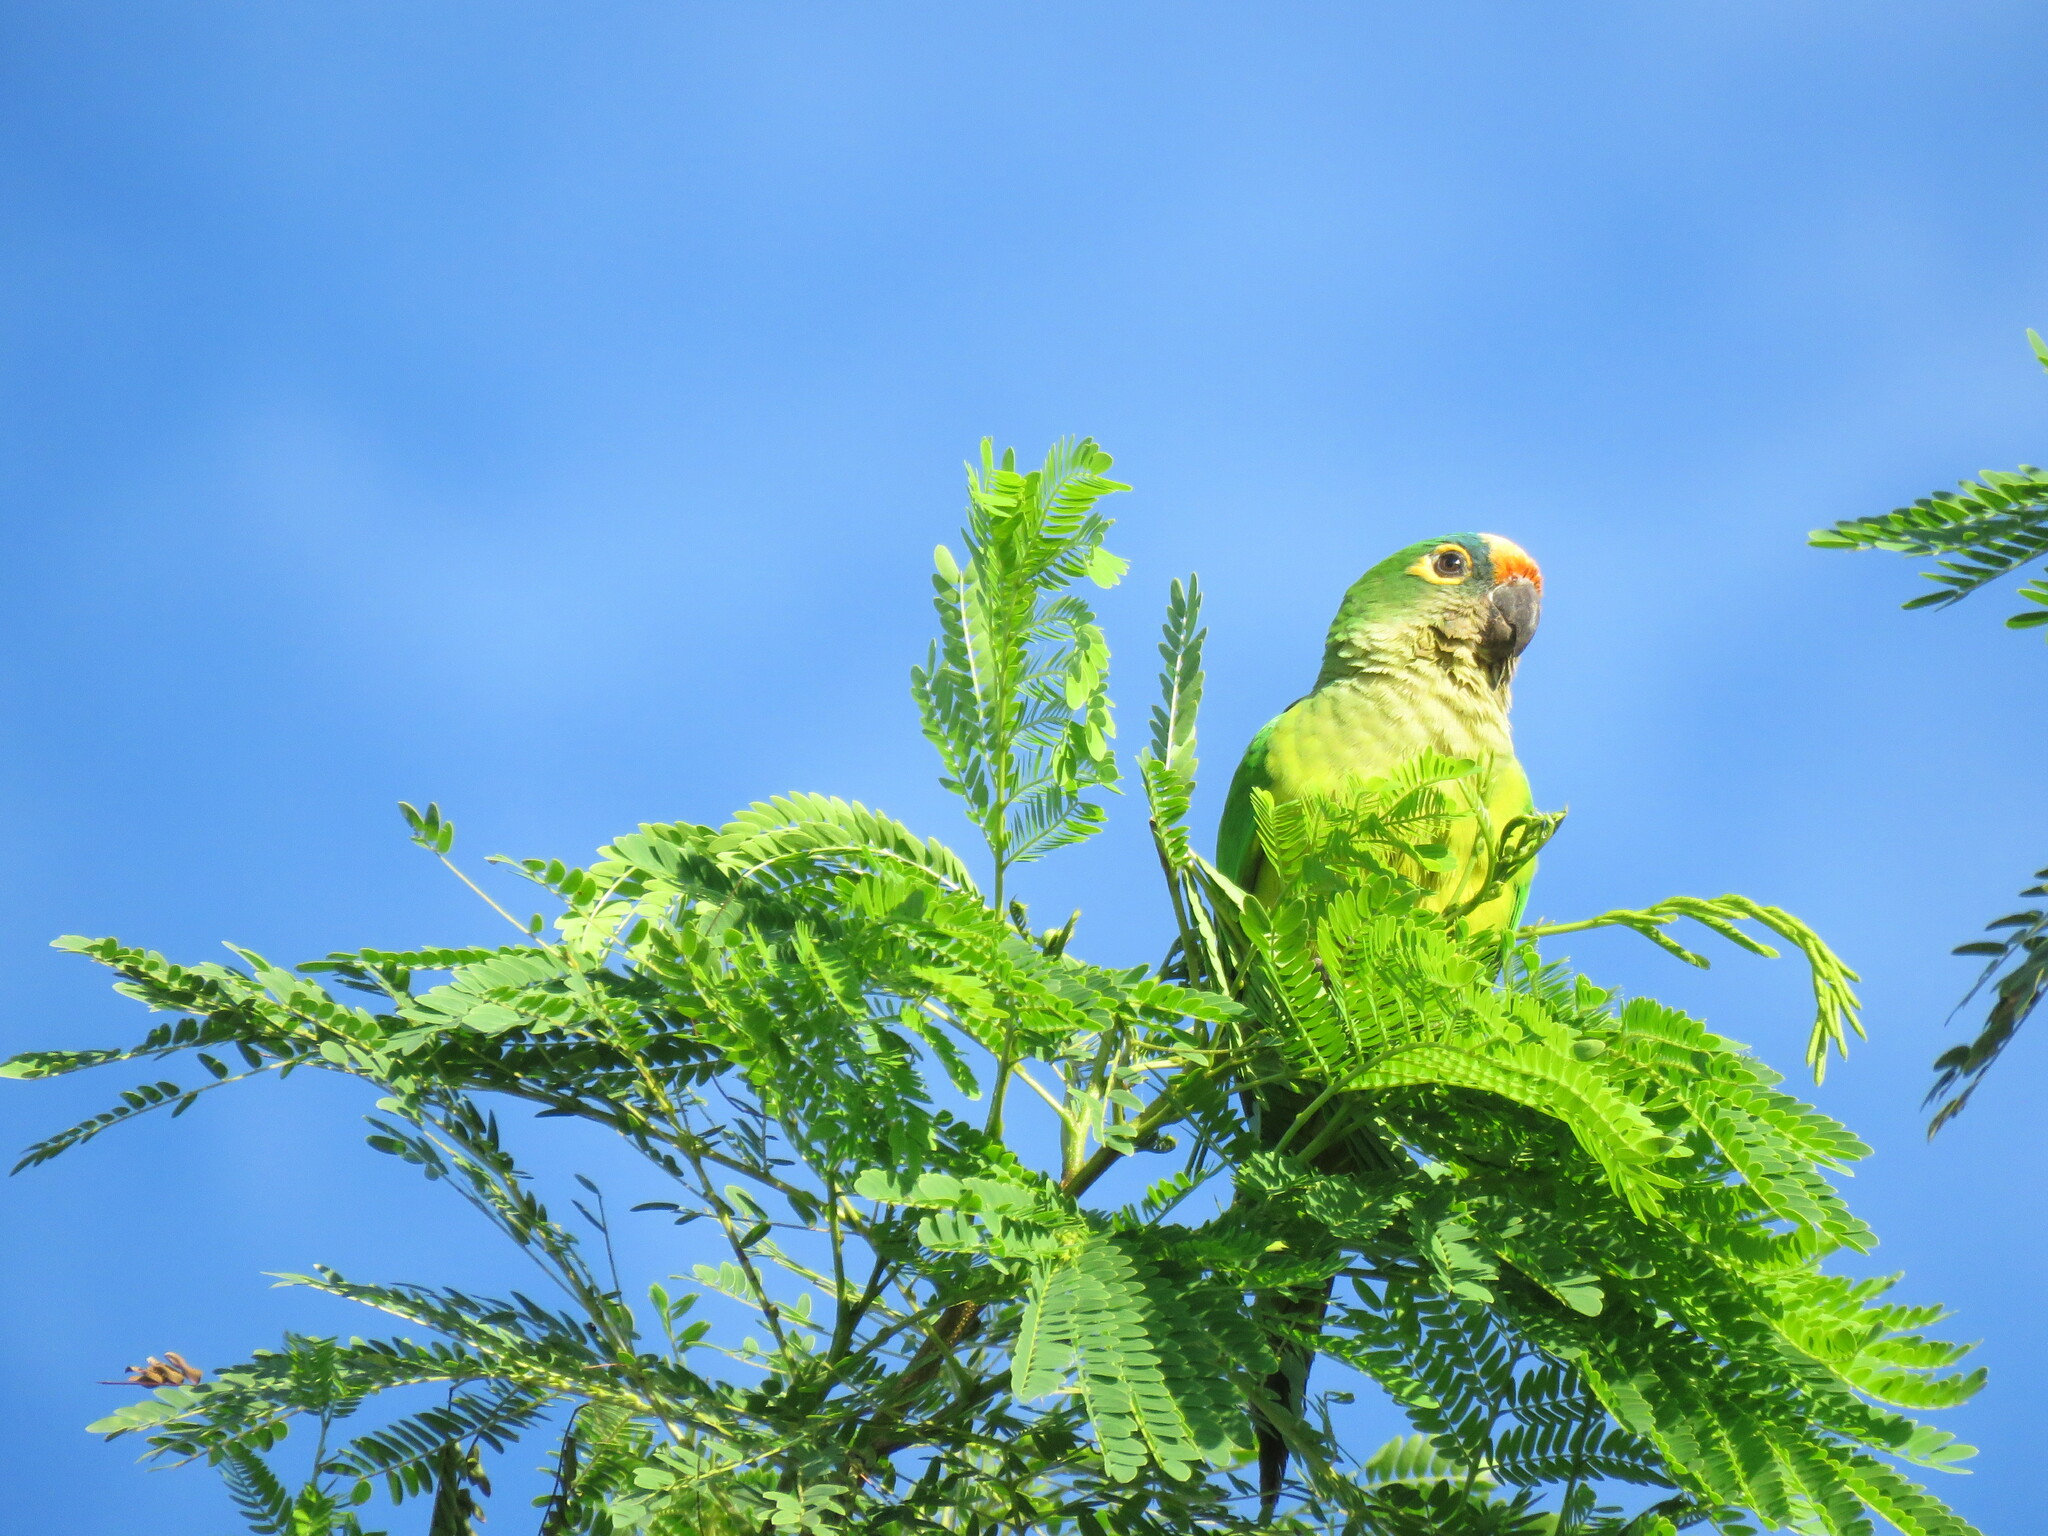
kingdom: Animalia
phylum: Chordata
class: Aves
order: Psittaciformes
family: Psittacidae
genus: Aratinga
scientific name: Aratinga aurea
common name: Peach-fronted parakeet
